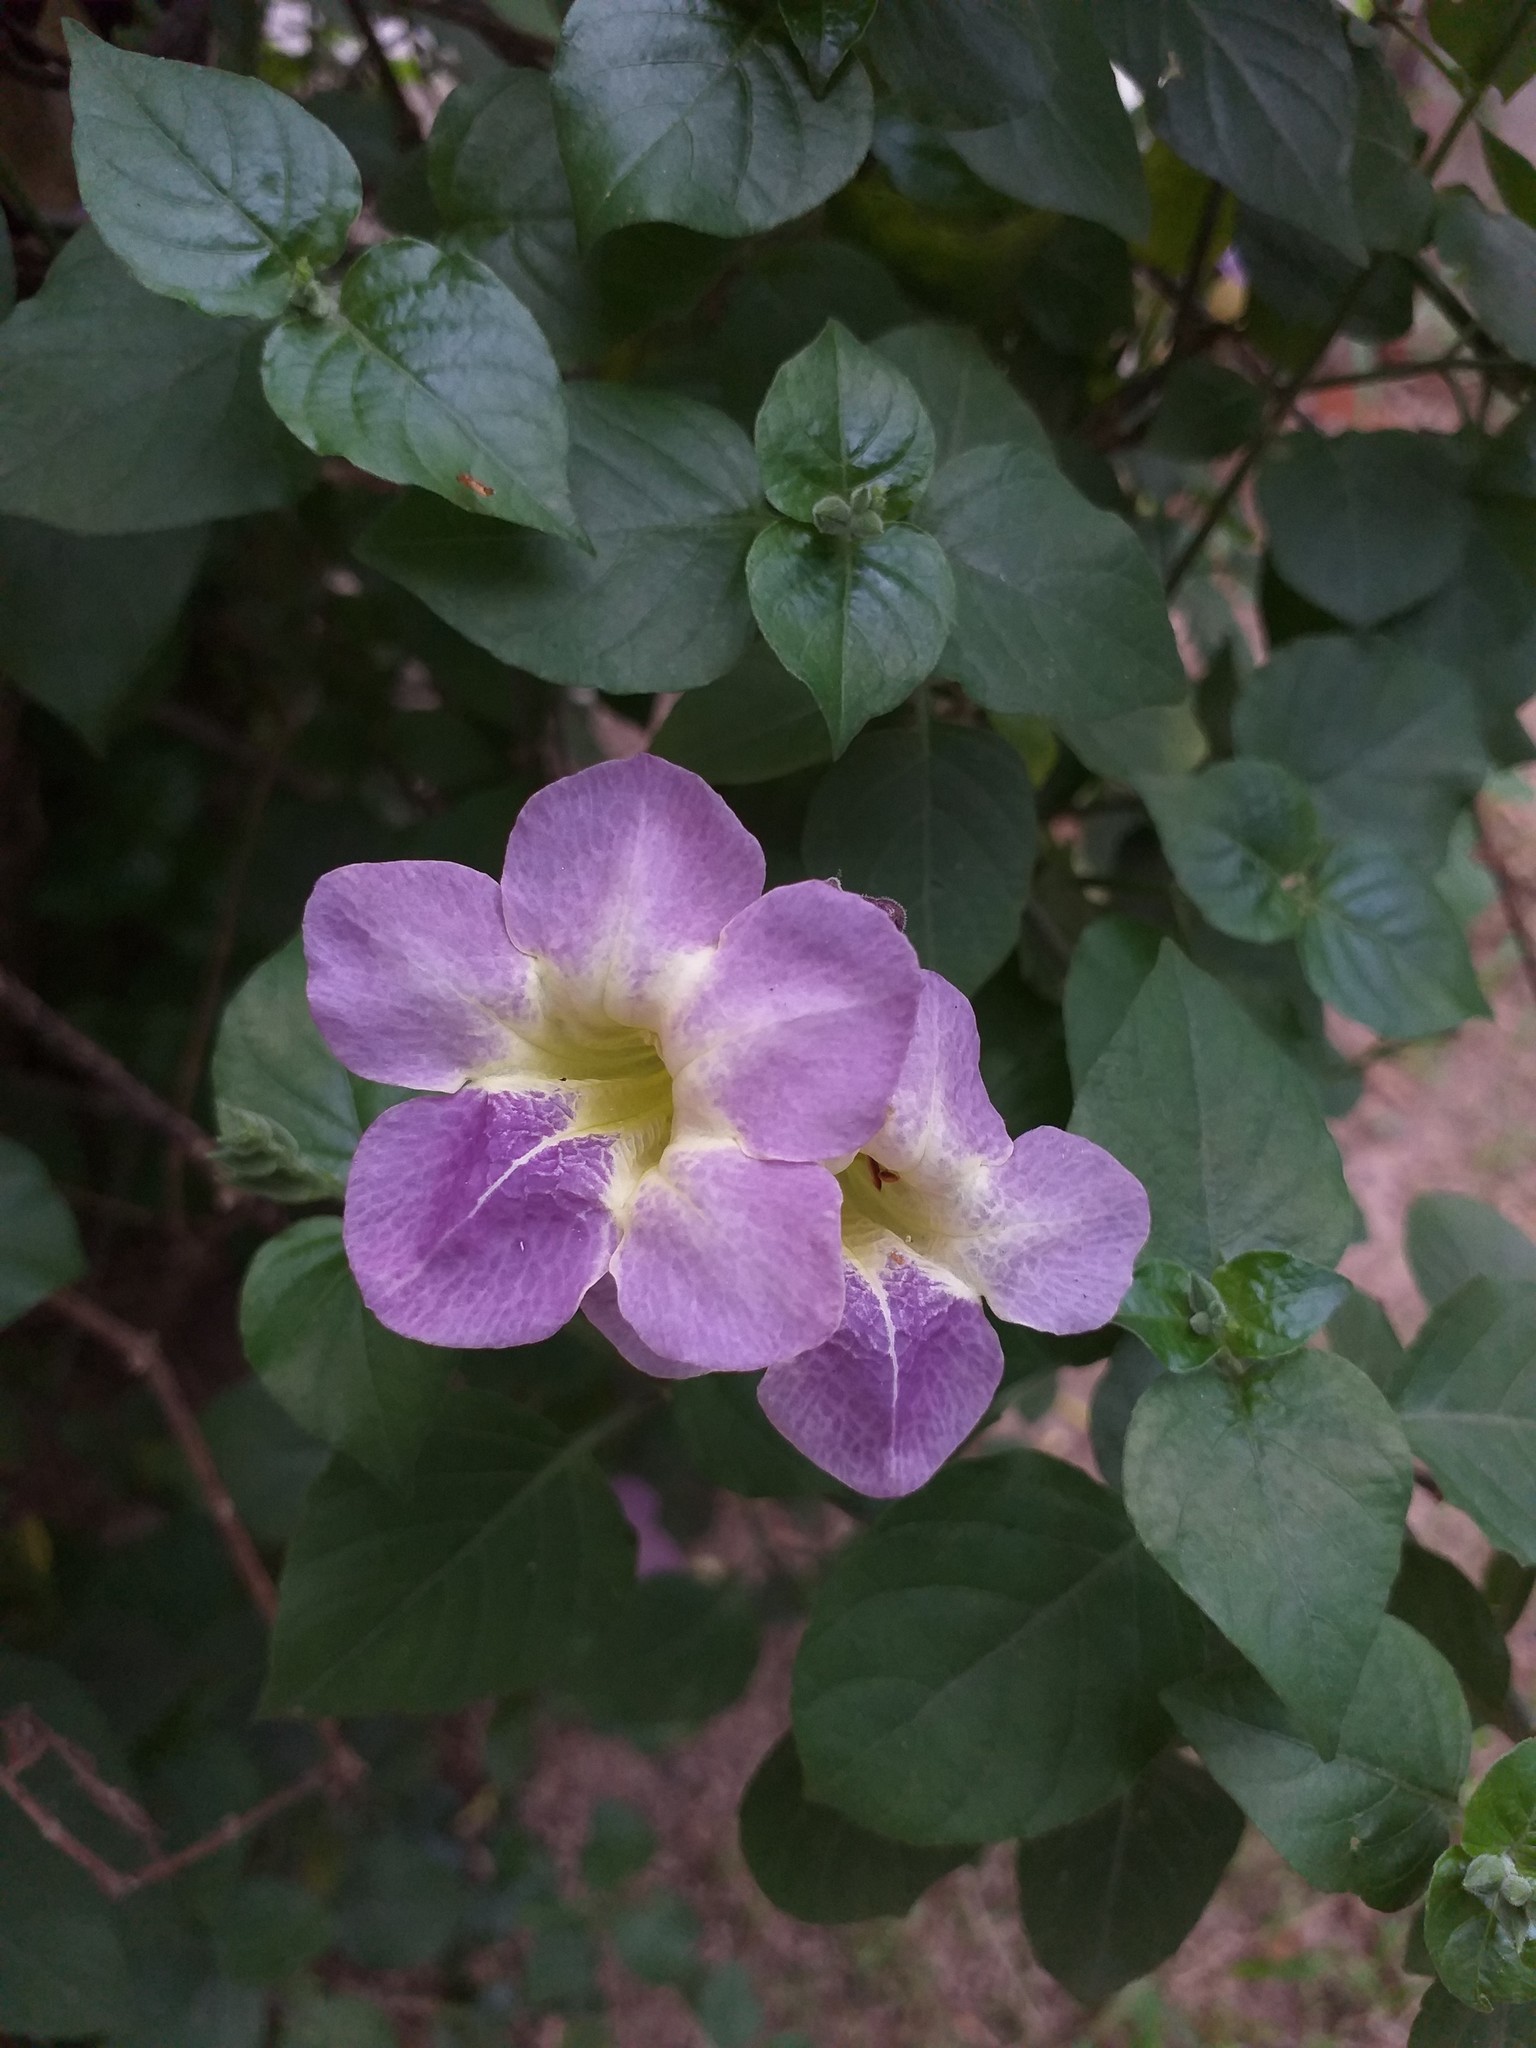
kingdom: Plantae
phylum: Tracheophyta
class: Magnoliopsida
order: Lamiales
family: Acanthaceae
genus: Asystasia
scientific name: Asystasia gangetica
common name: Chinese violet
